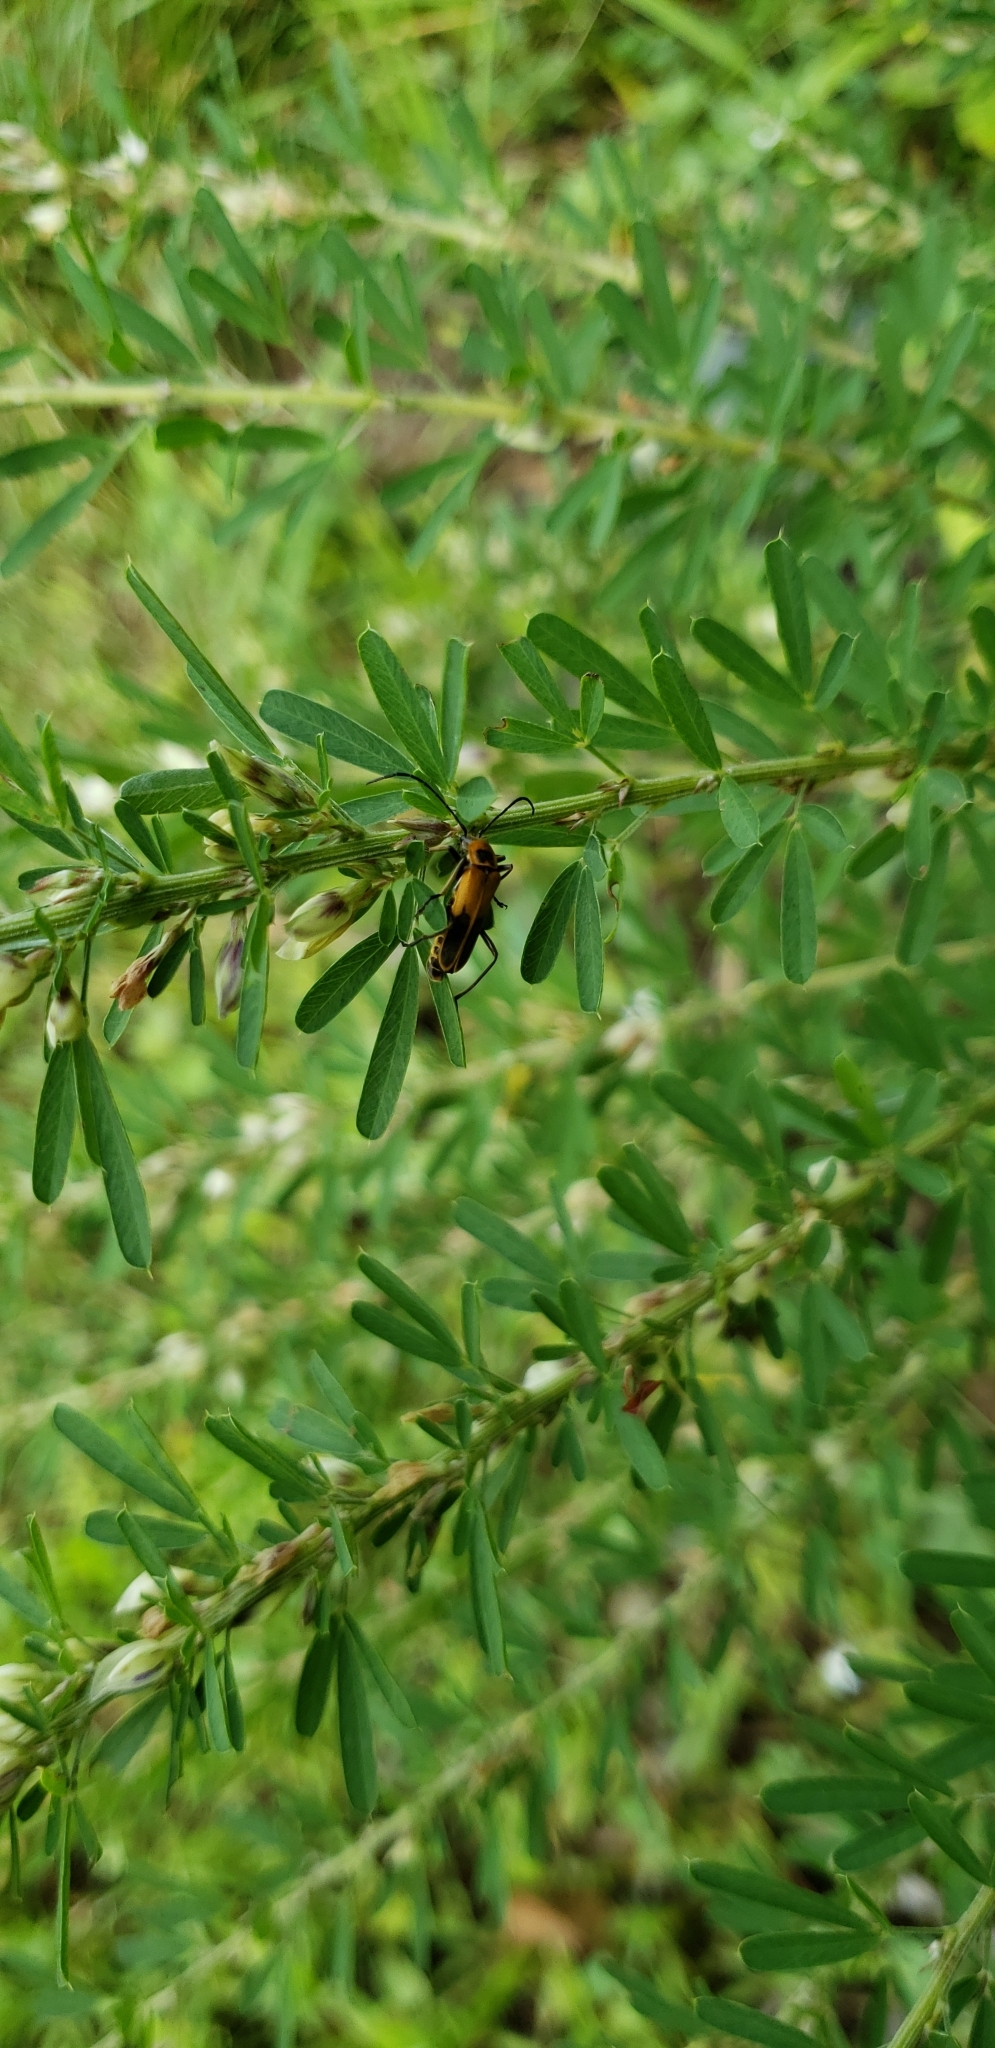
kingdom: Animalia
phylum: Arthropoda
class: Insecta
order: Coleoptera
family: Cantharidae
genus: Chauliognathus
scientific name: Chauliognathus pensylvanicus
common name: Goldenrod soldier beetle
